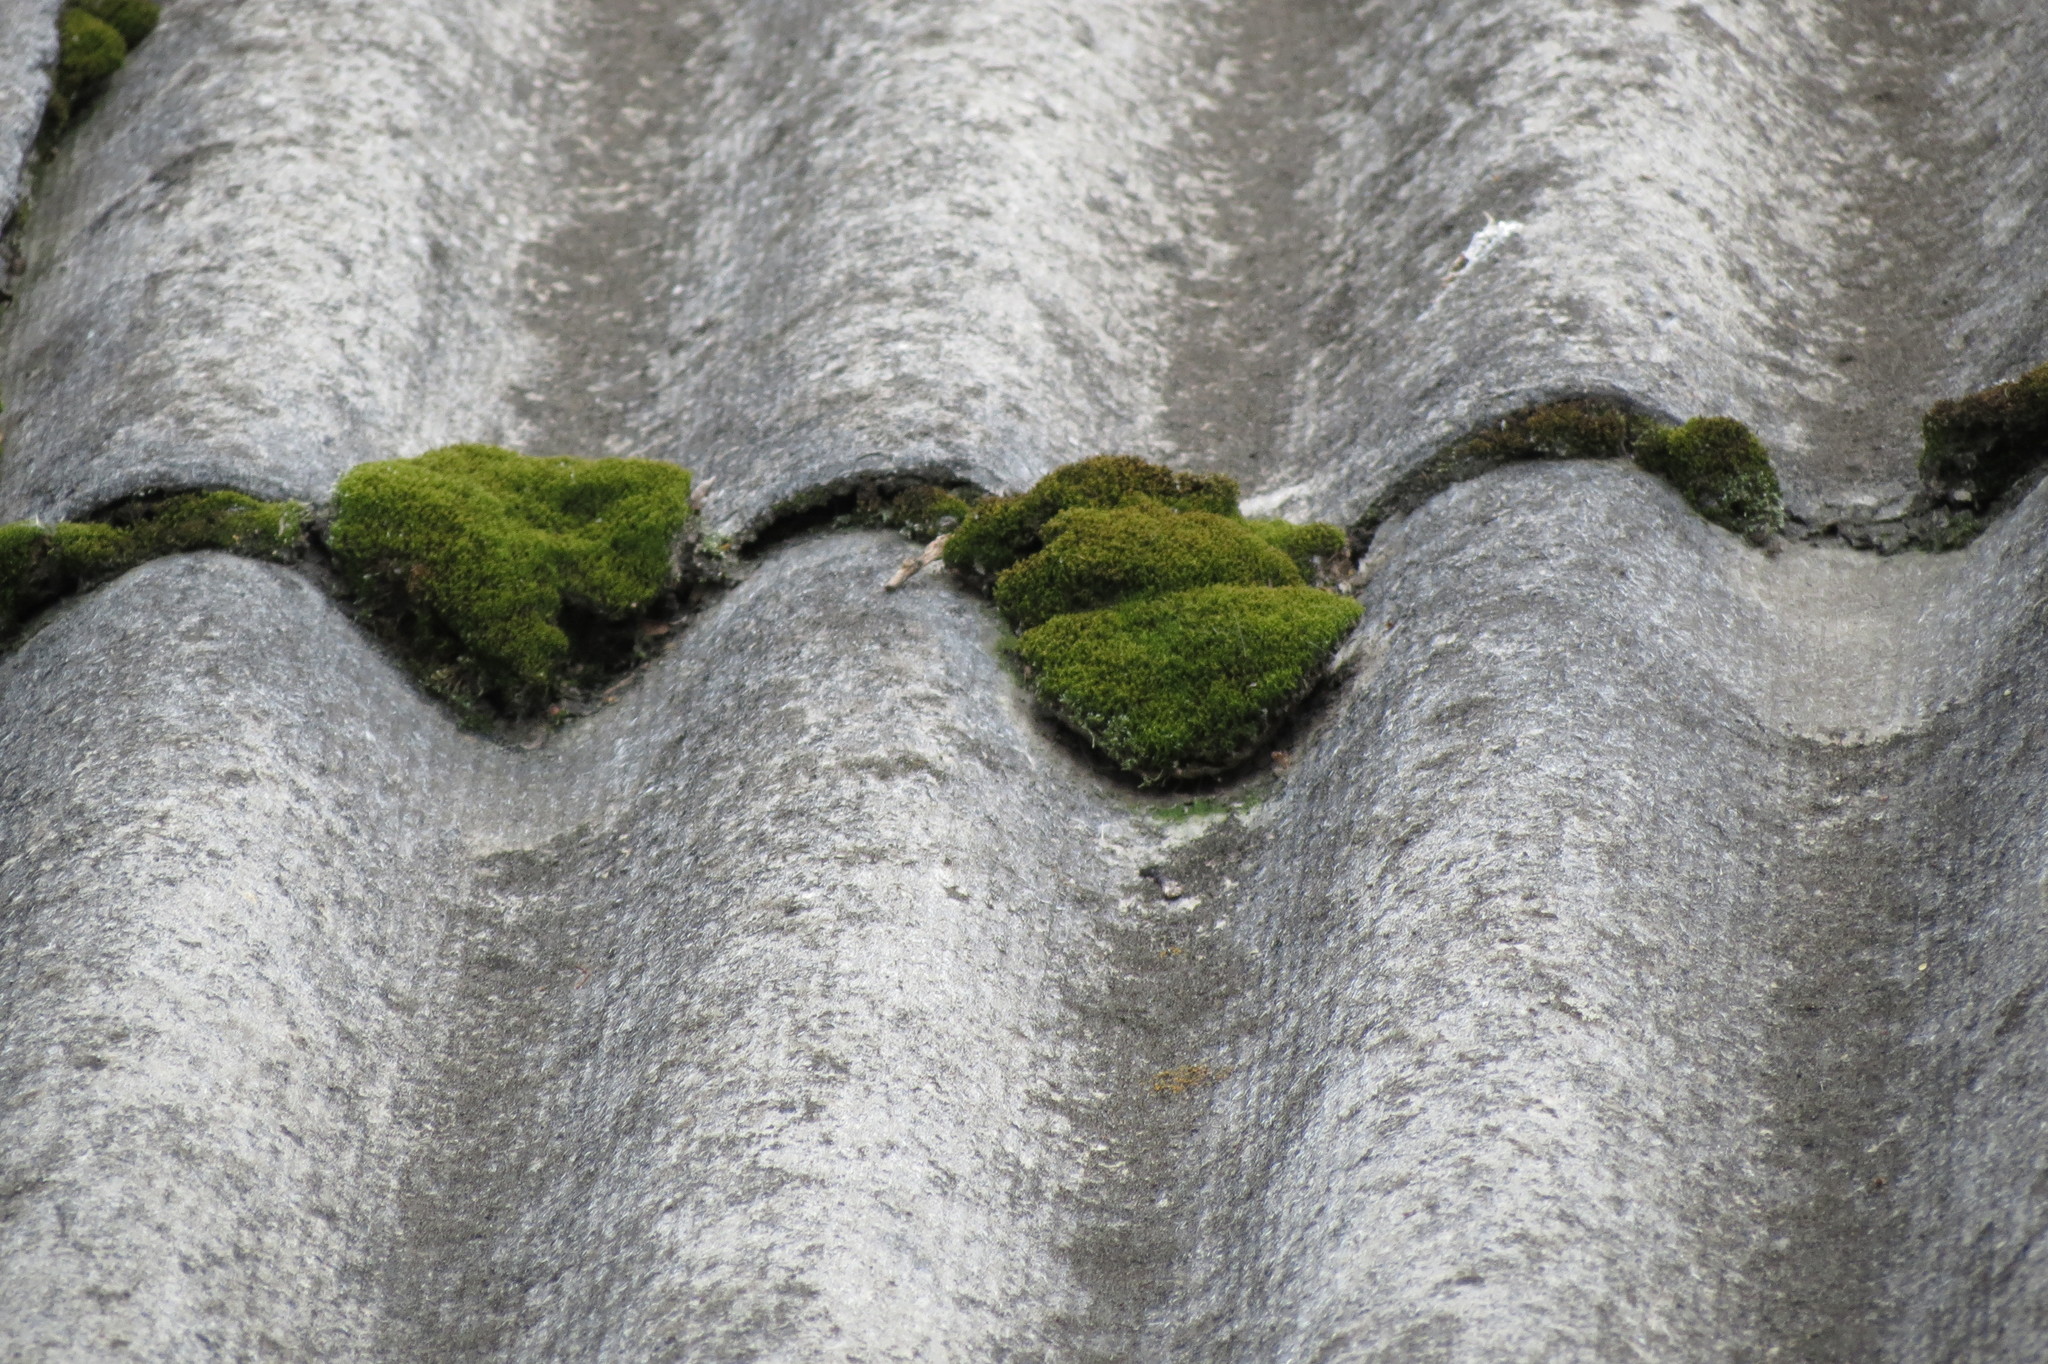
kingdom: Plantae
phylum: Bryophyta
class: Bryopsida
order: Pottiales
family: Pottiaceae
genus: Syntrichia
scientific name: Syntrichia ruralis
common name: Sidewalk screw moss
